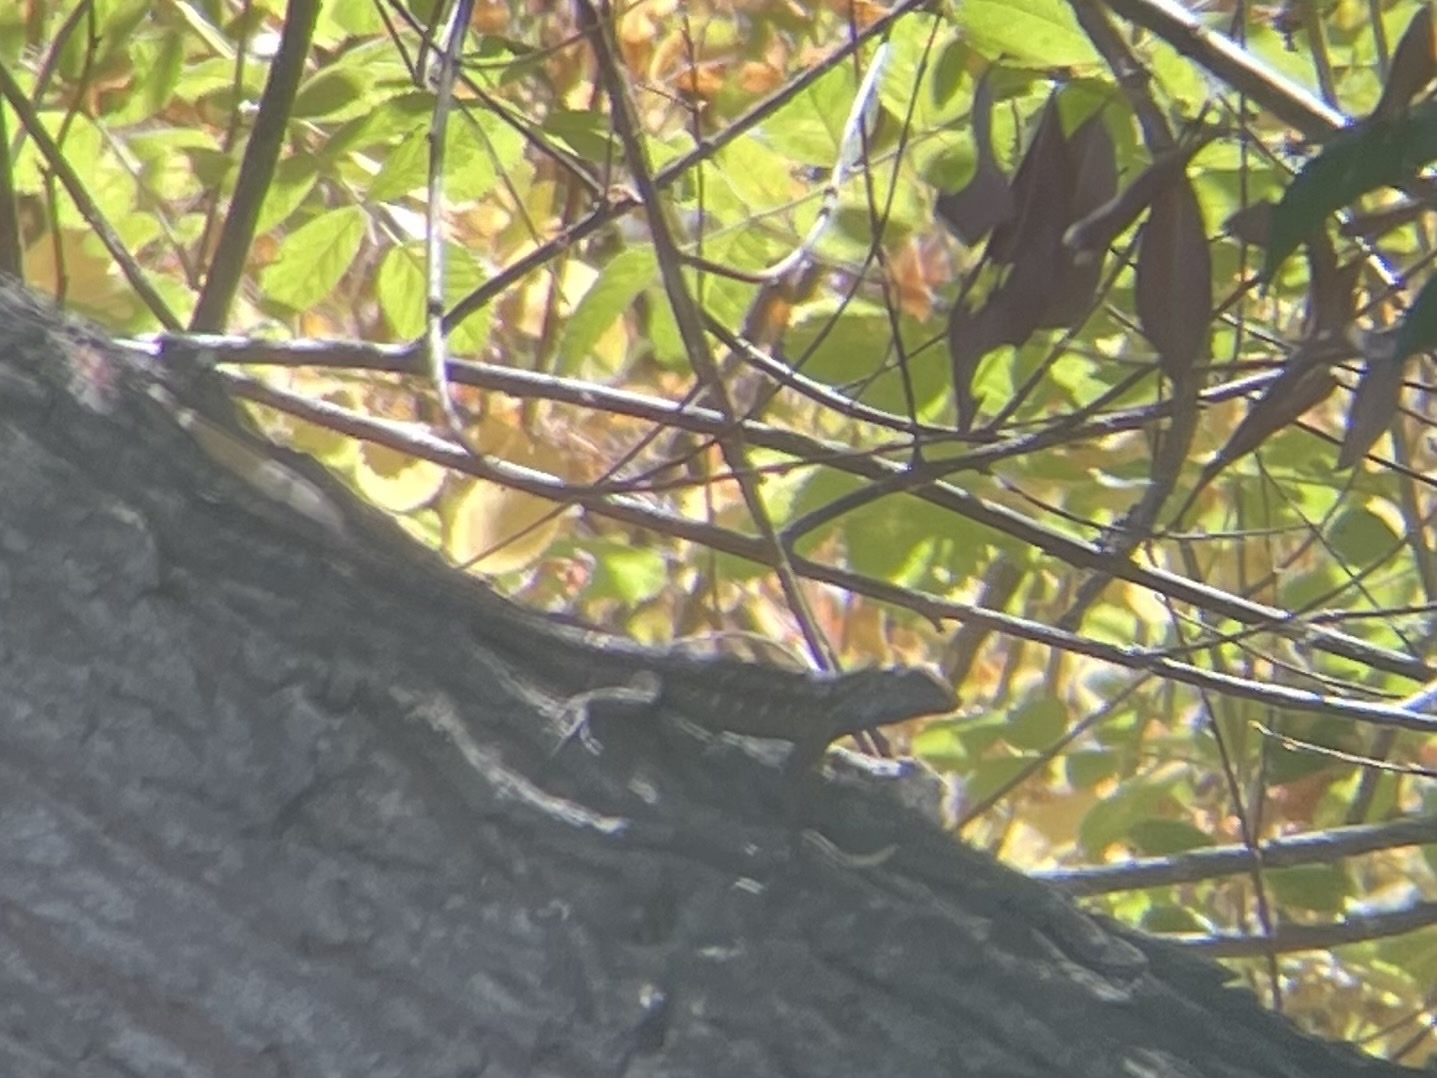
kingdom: Animalia
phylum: Chordata
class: Squamata
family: Phrynosomatidae
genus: Sceloporus
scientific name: Sceloporus occidentalis
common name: Western fence lizard
